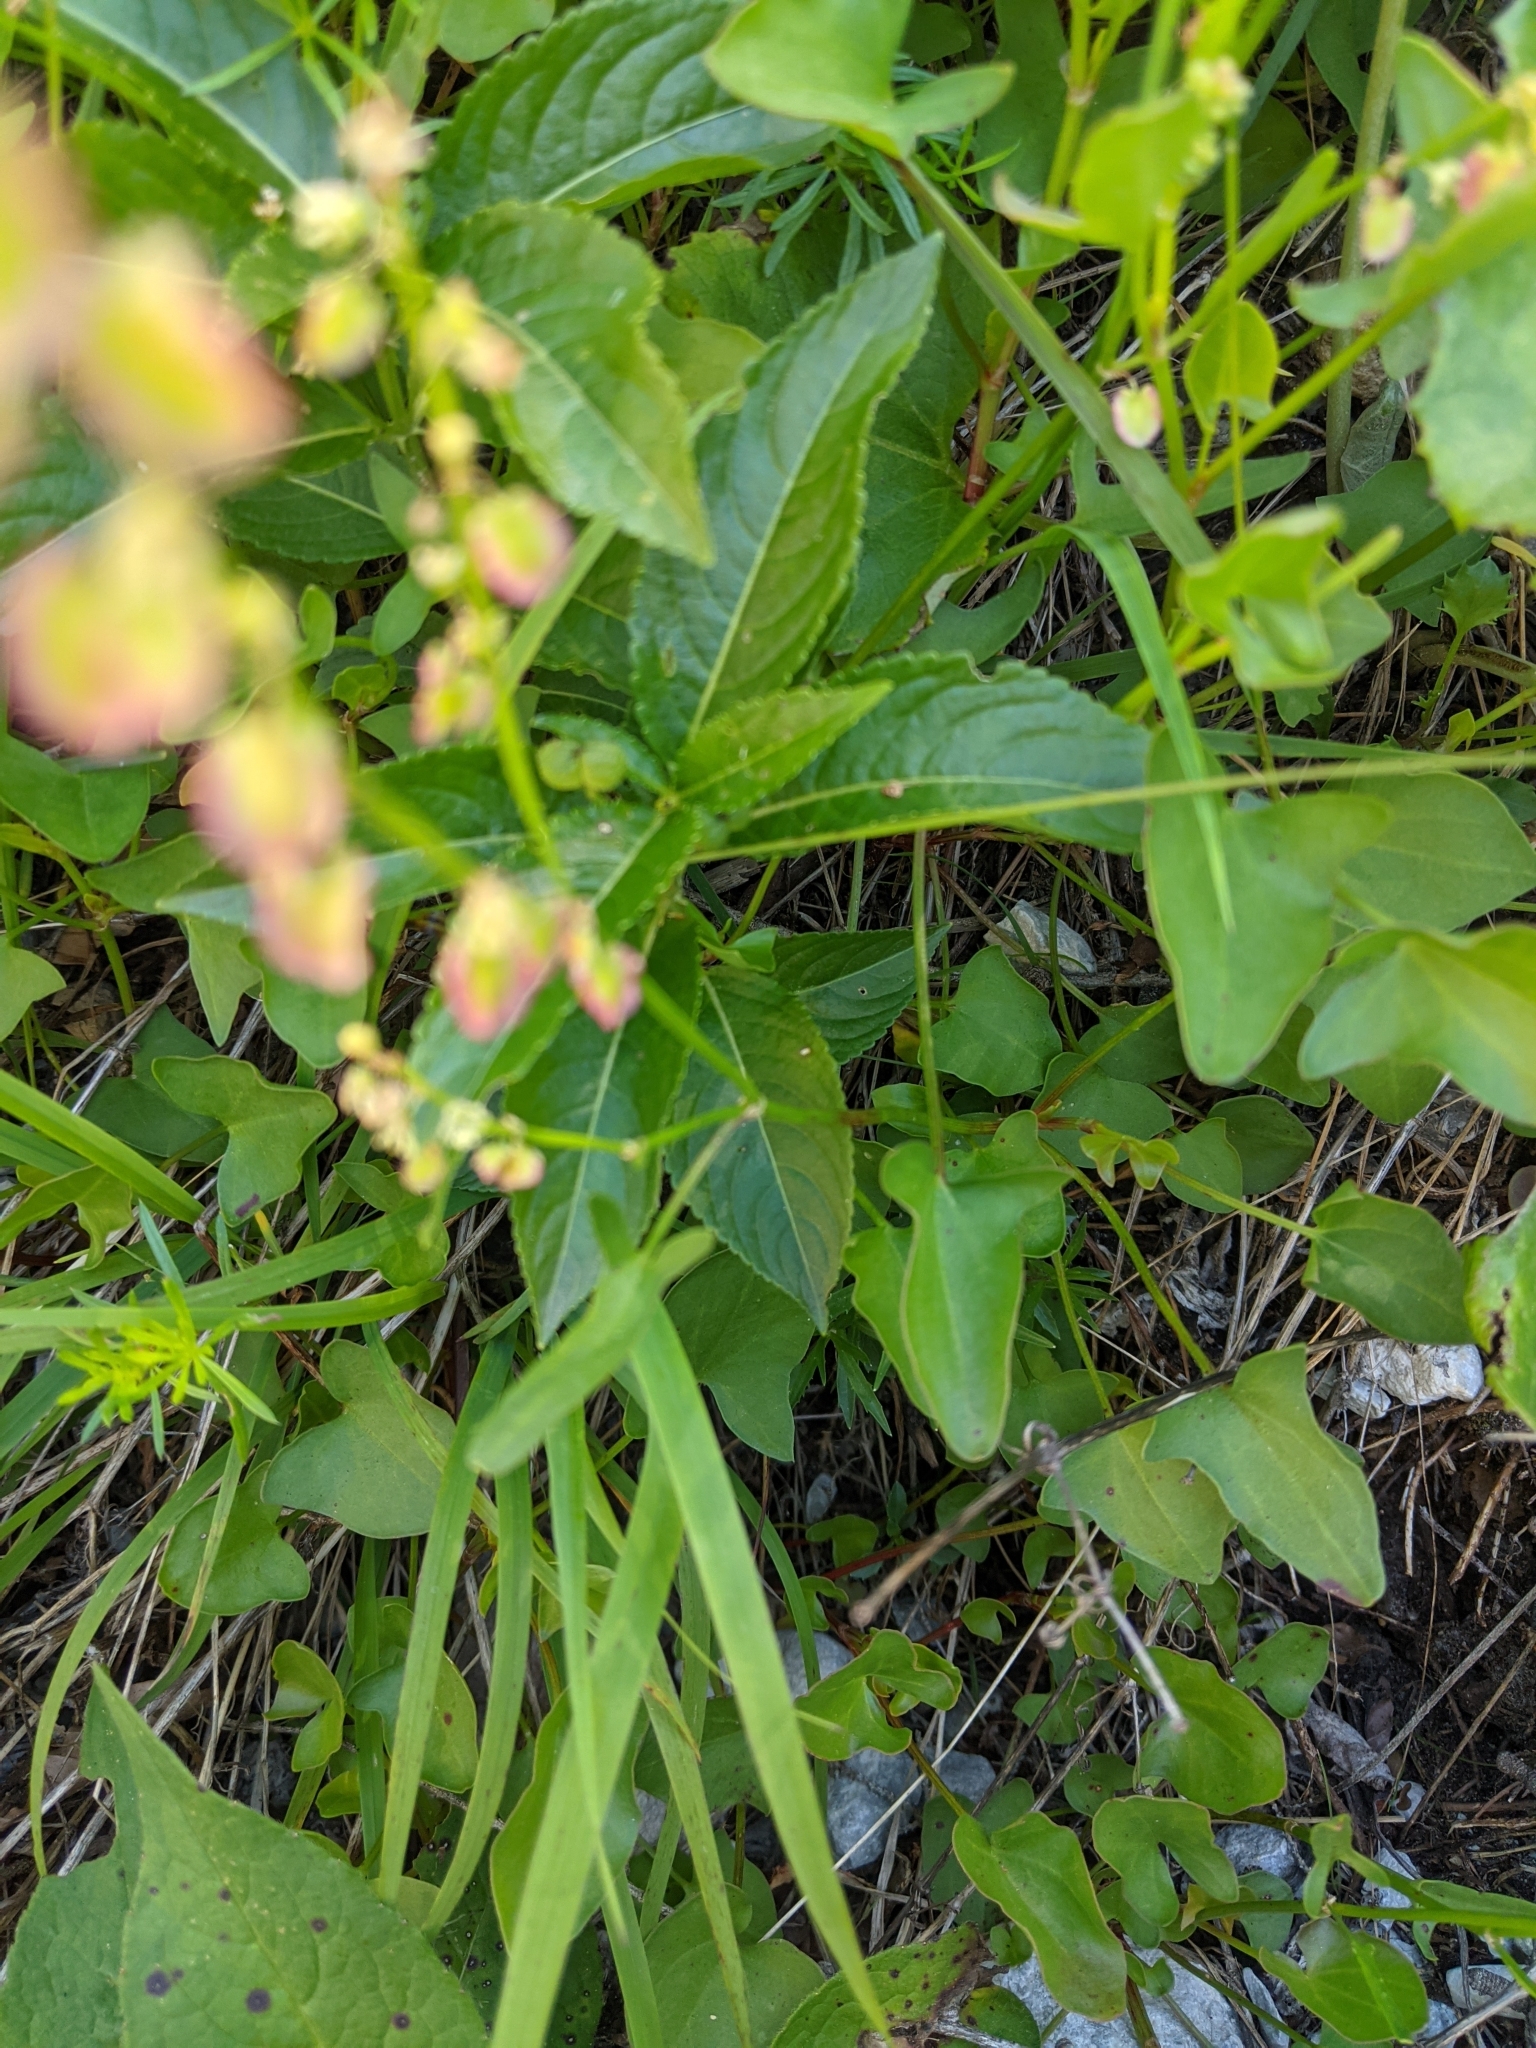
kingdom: Plantae
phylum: Tracheophyta
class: Magnoliopsida
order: Caryophyllales
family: Polygonaceae
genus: Rumex
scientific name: Rumex scutatus
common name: French sorrel
